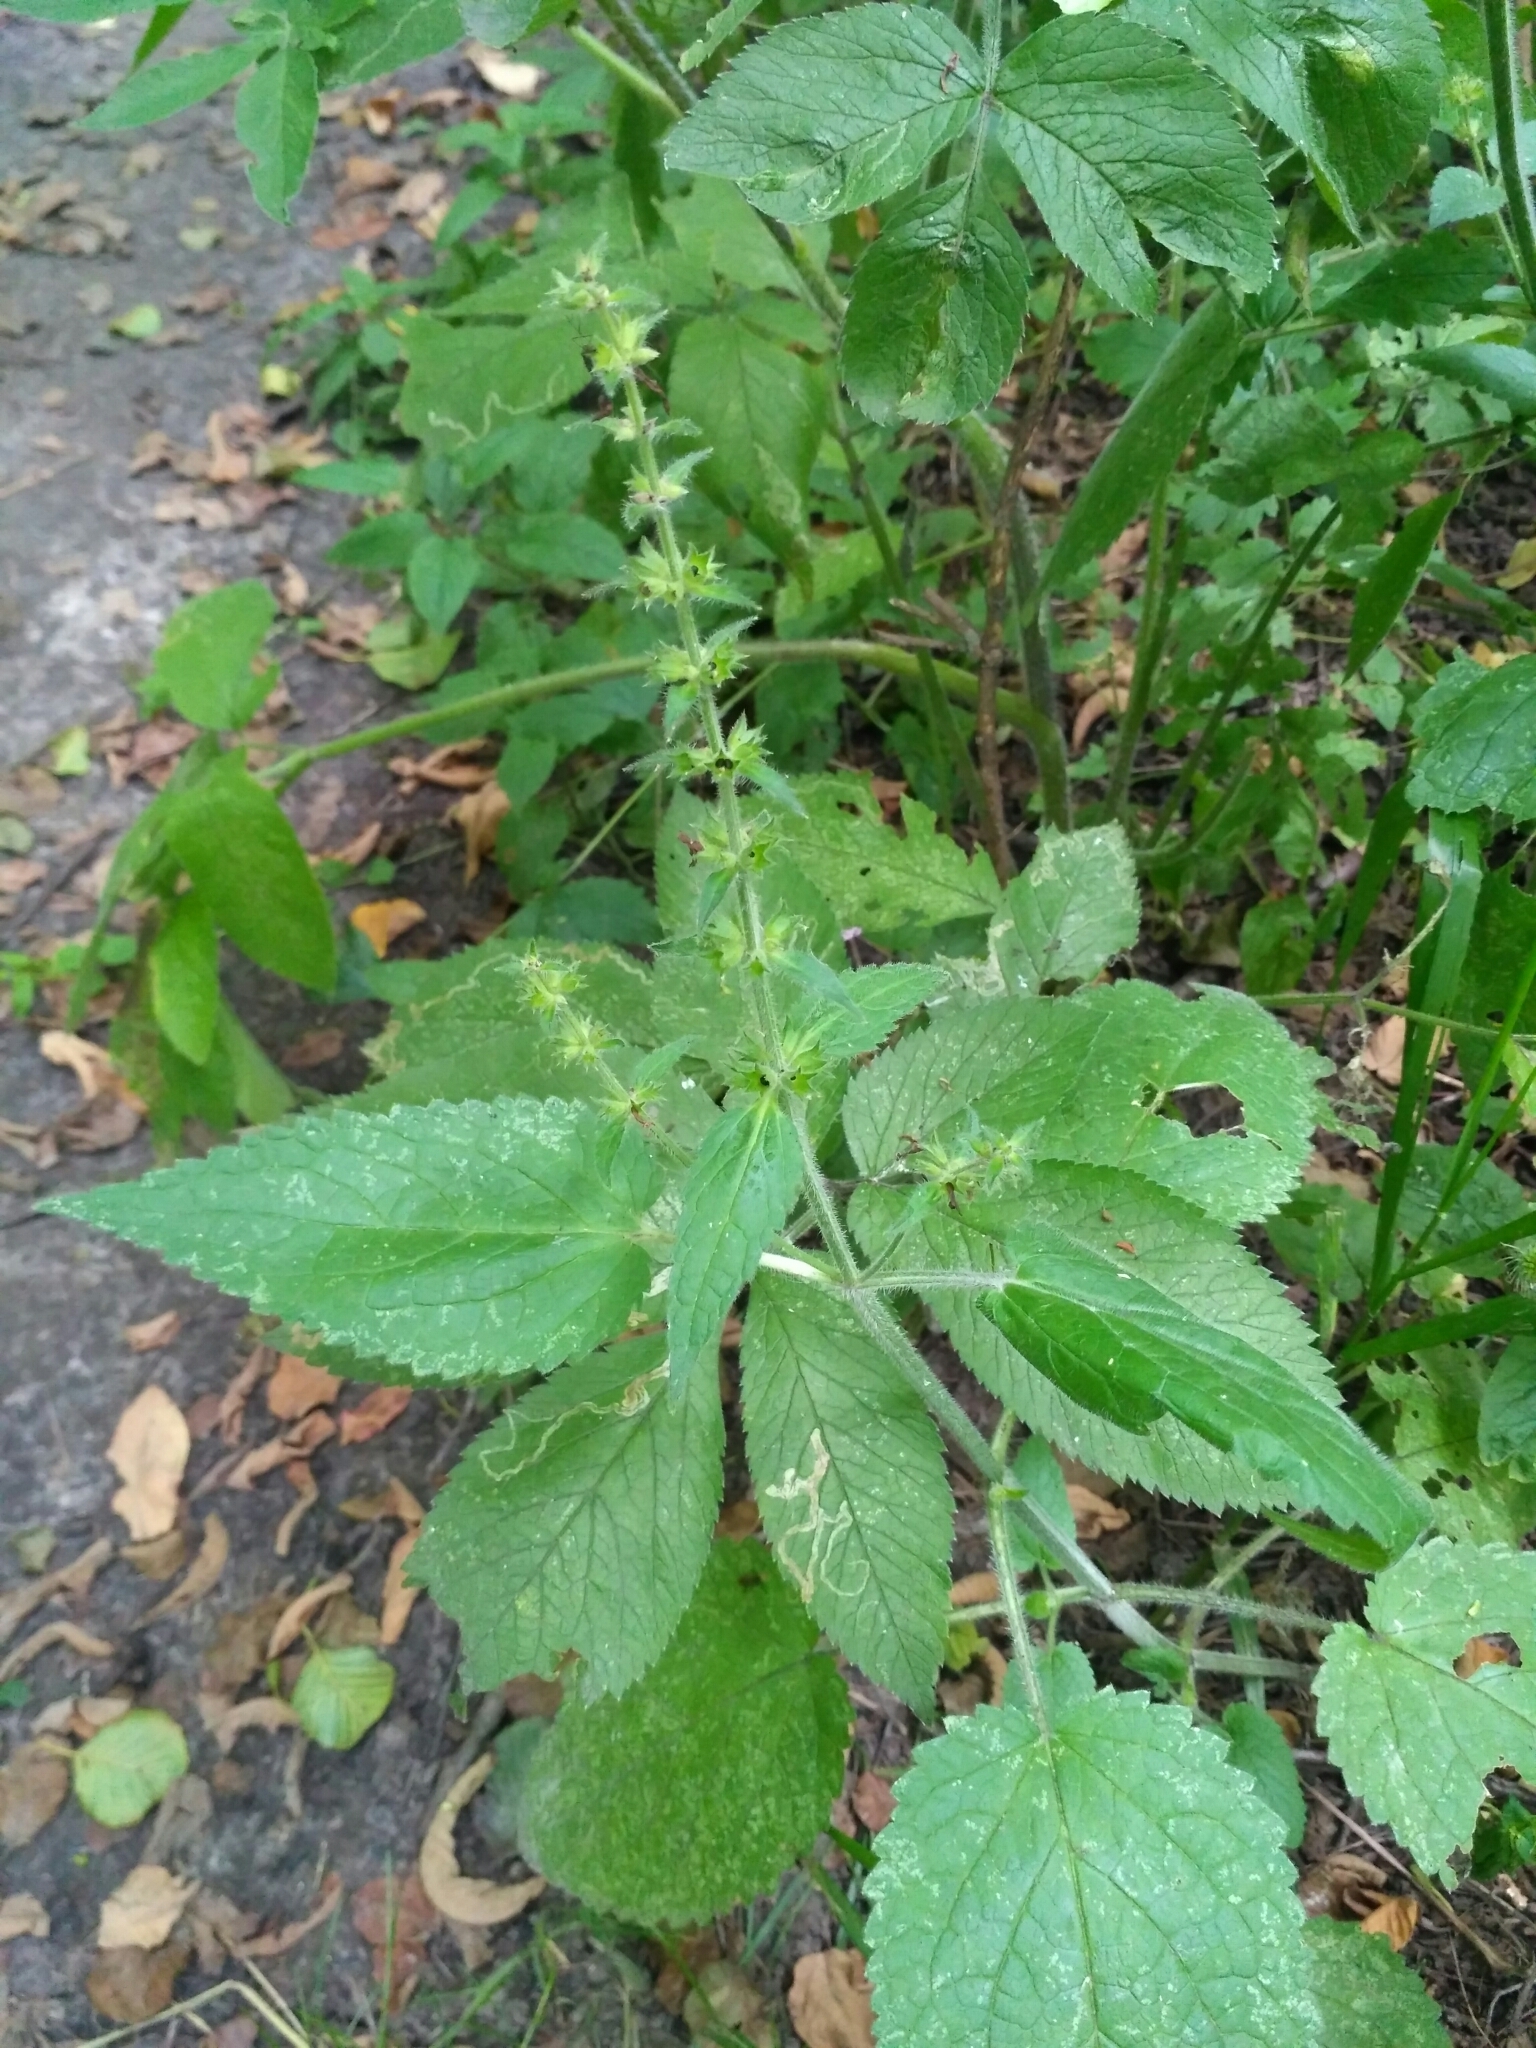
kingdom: Plantae
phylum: Tracheophyta
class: Magnoliopsida
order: Lamiales
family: Lamiaceae
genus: Stachys
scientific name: Stachys sylvatica
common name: Hedge woundwort
